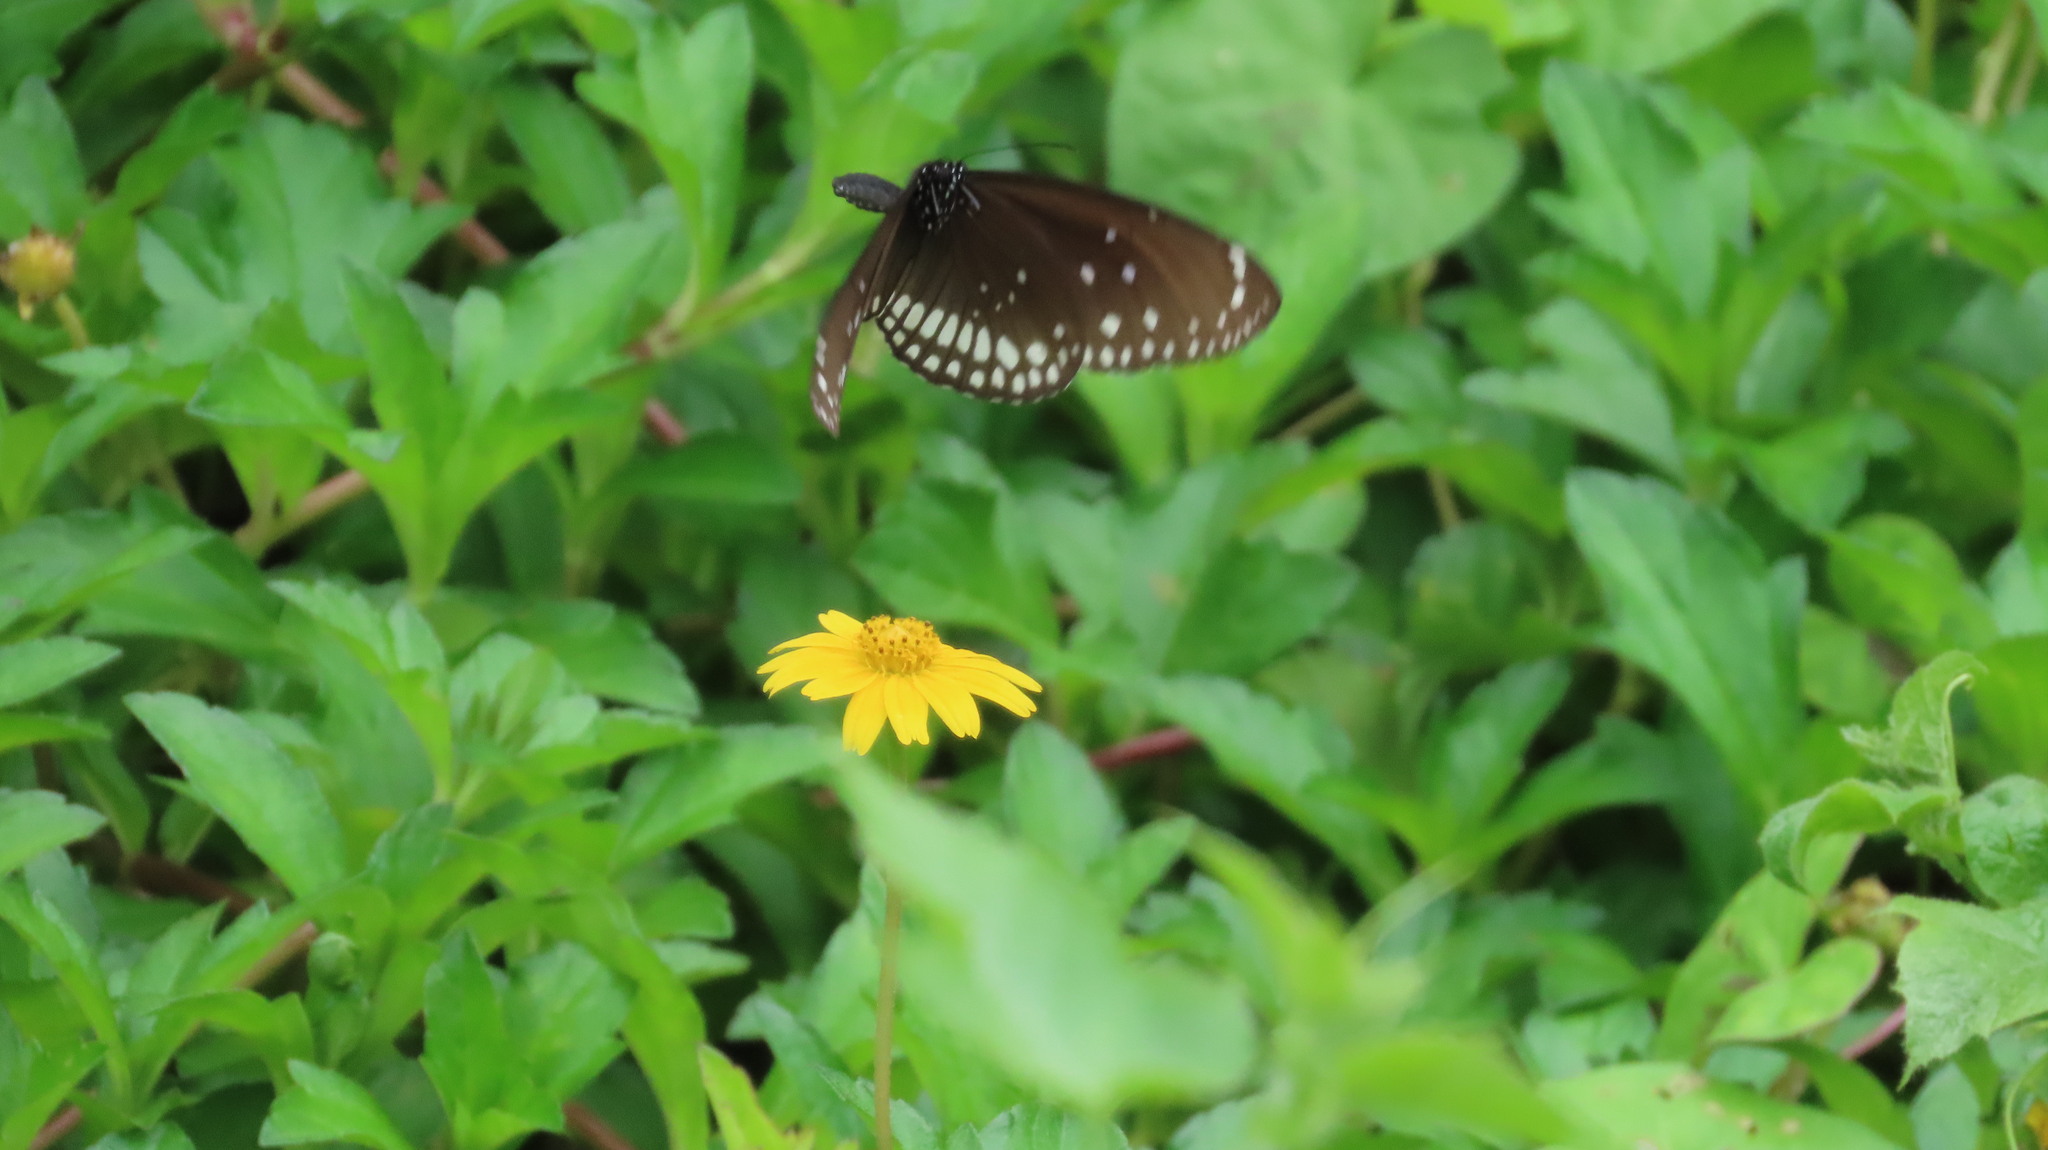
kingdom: Animalia
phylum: Arthropoda
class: Insecta
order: Lepidoptera
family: Nymphalidae
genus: Euploea
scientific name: Euploea core
